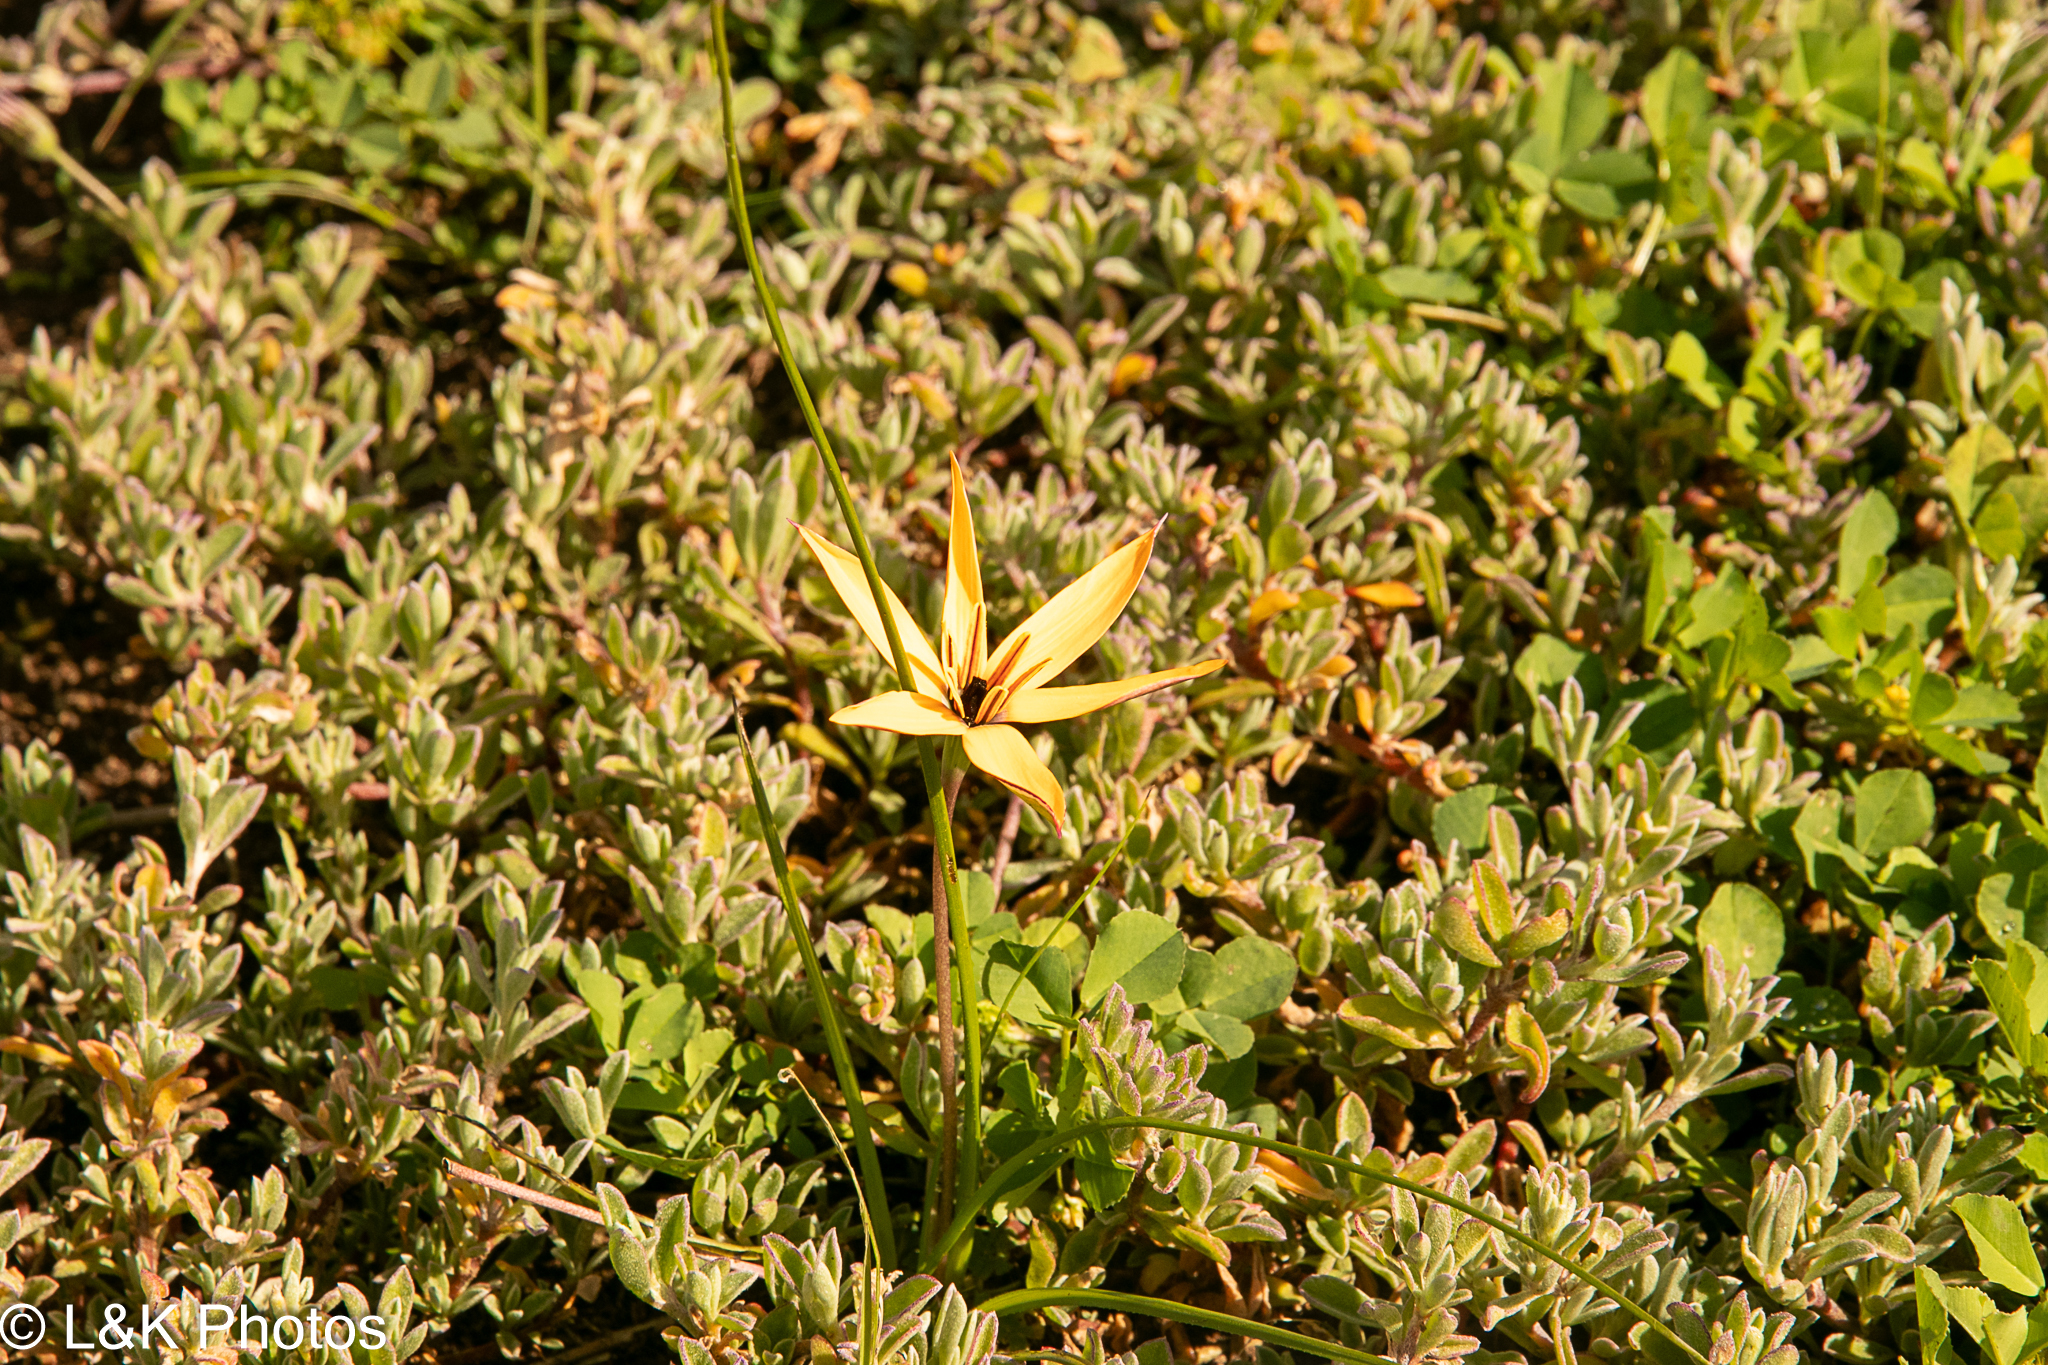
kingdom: Plantae
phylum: Tracheophyta
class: Liliopsida
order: Asparagales
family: Hypoxidaceae
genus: Pauridia
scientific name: Pauridia linearis
